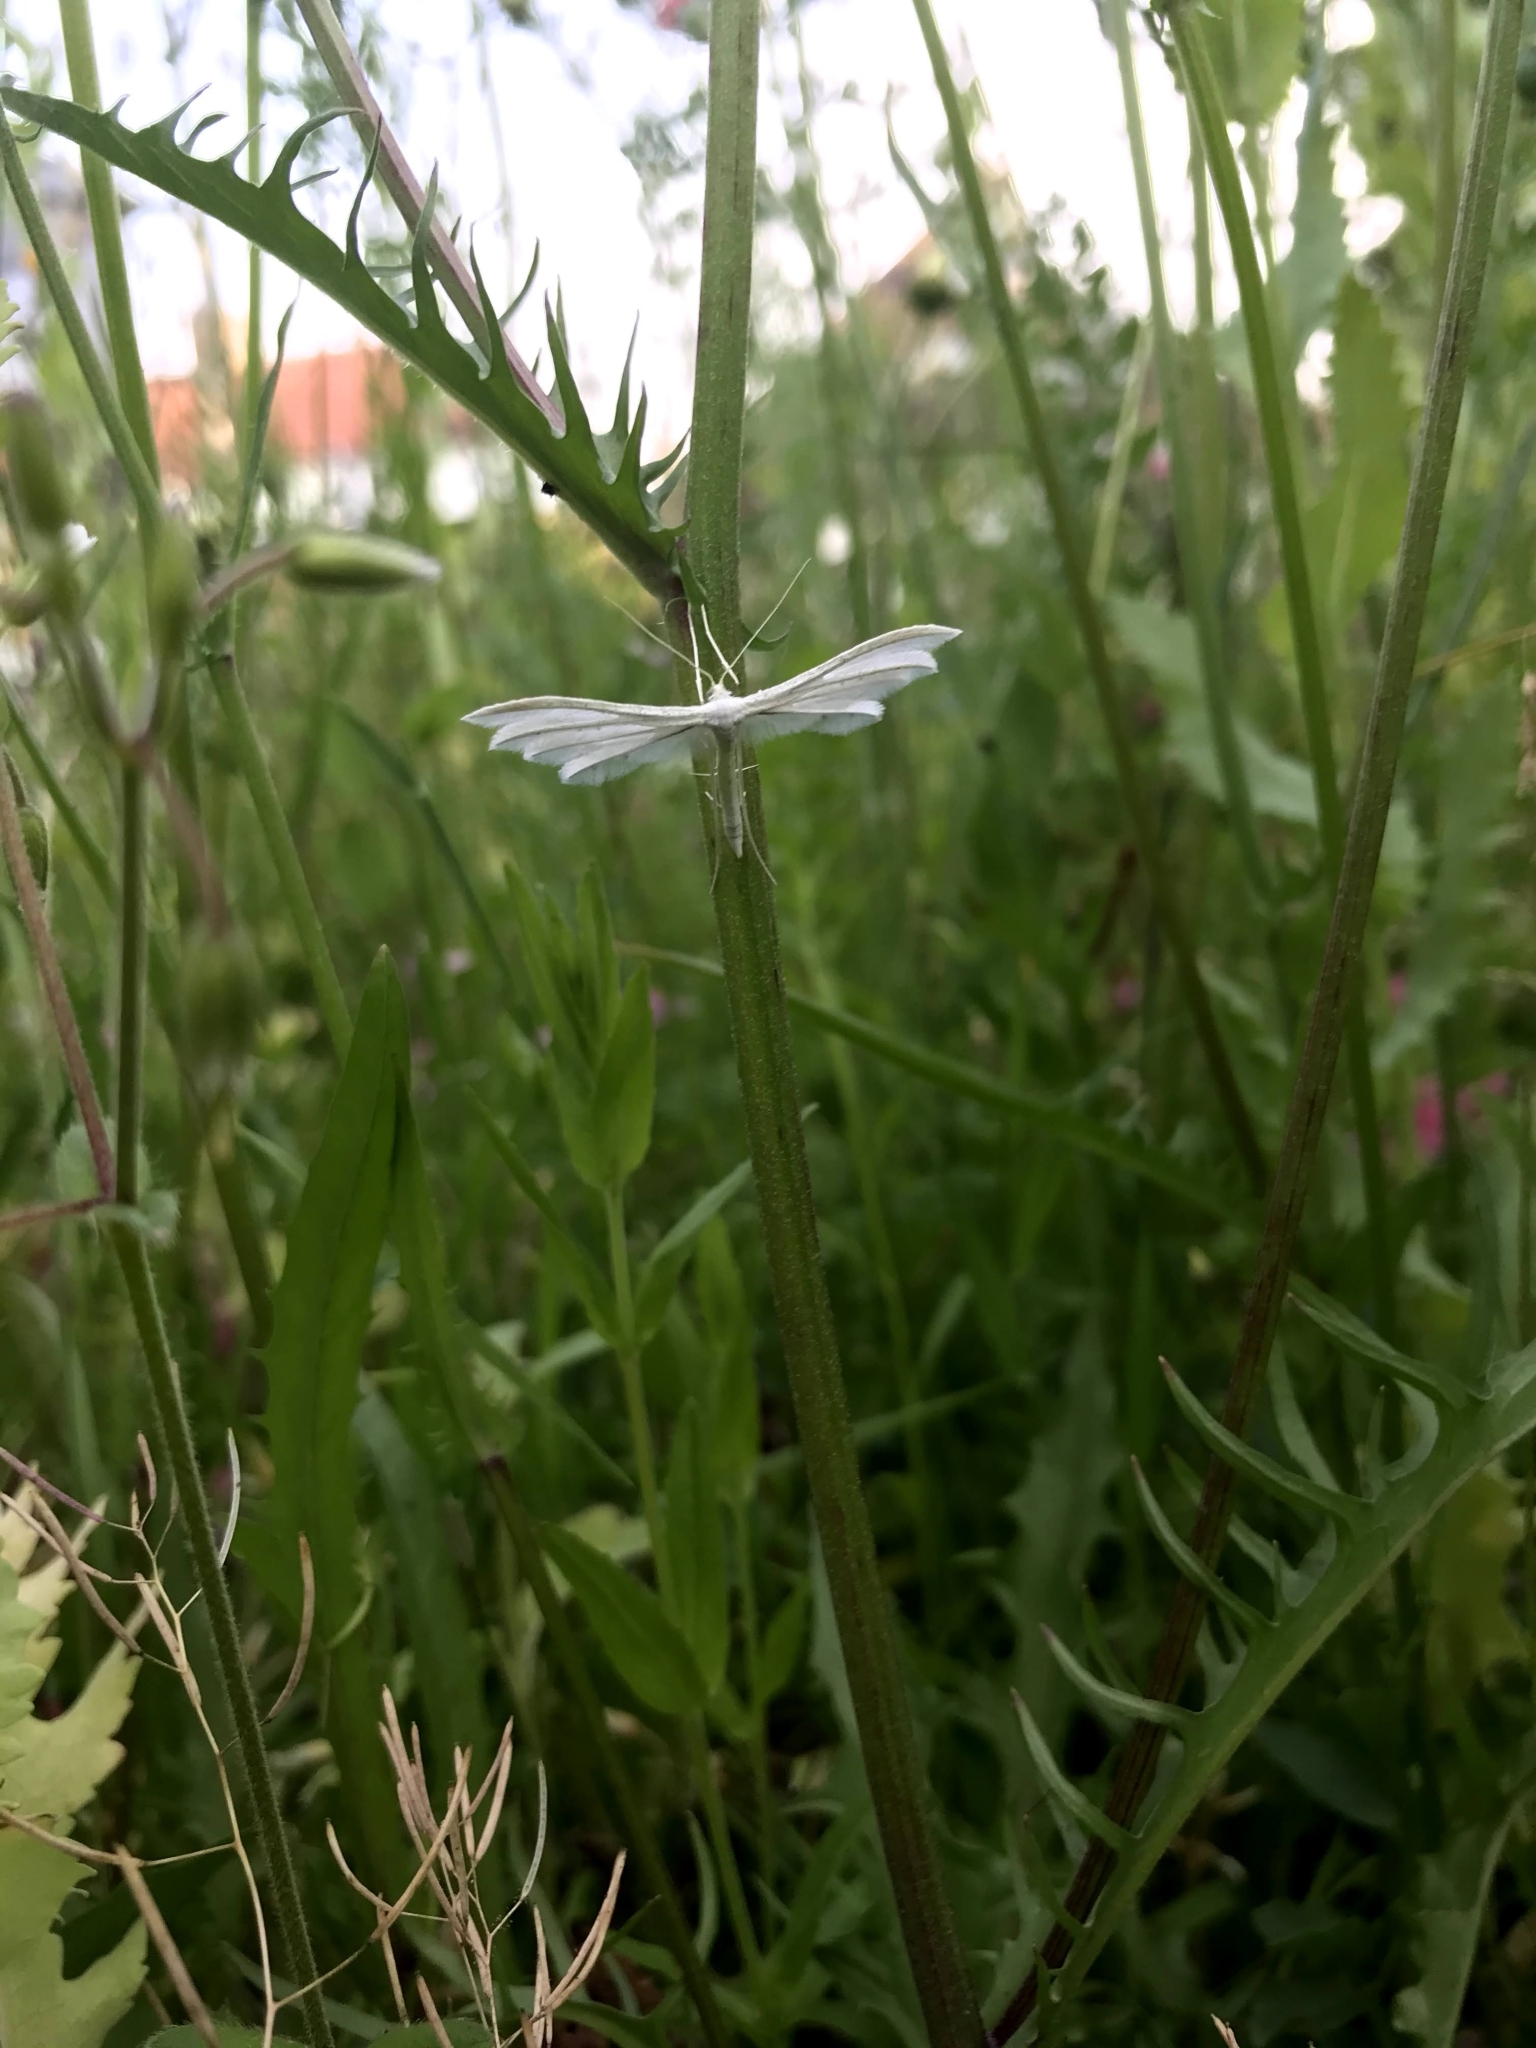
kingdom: Animalia
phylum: Arthropoda
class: Insecta
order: Lepidoptera
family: Pterophoridae
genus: Pterophorus
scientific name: Pterophorus pentadactyla
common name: White plume moth
